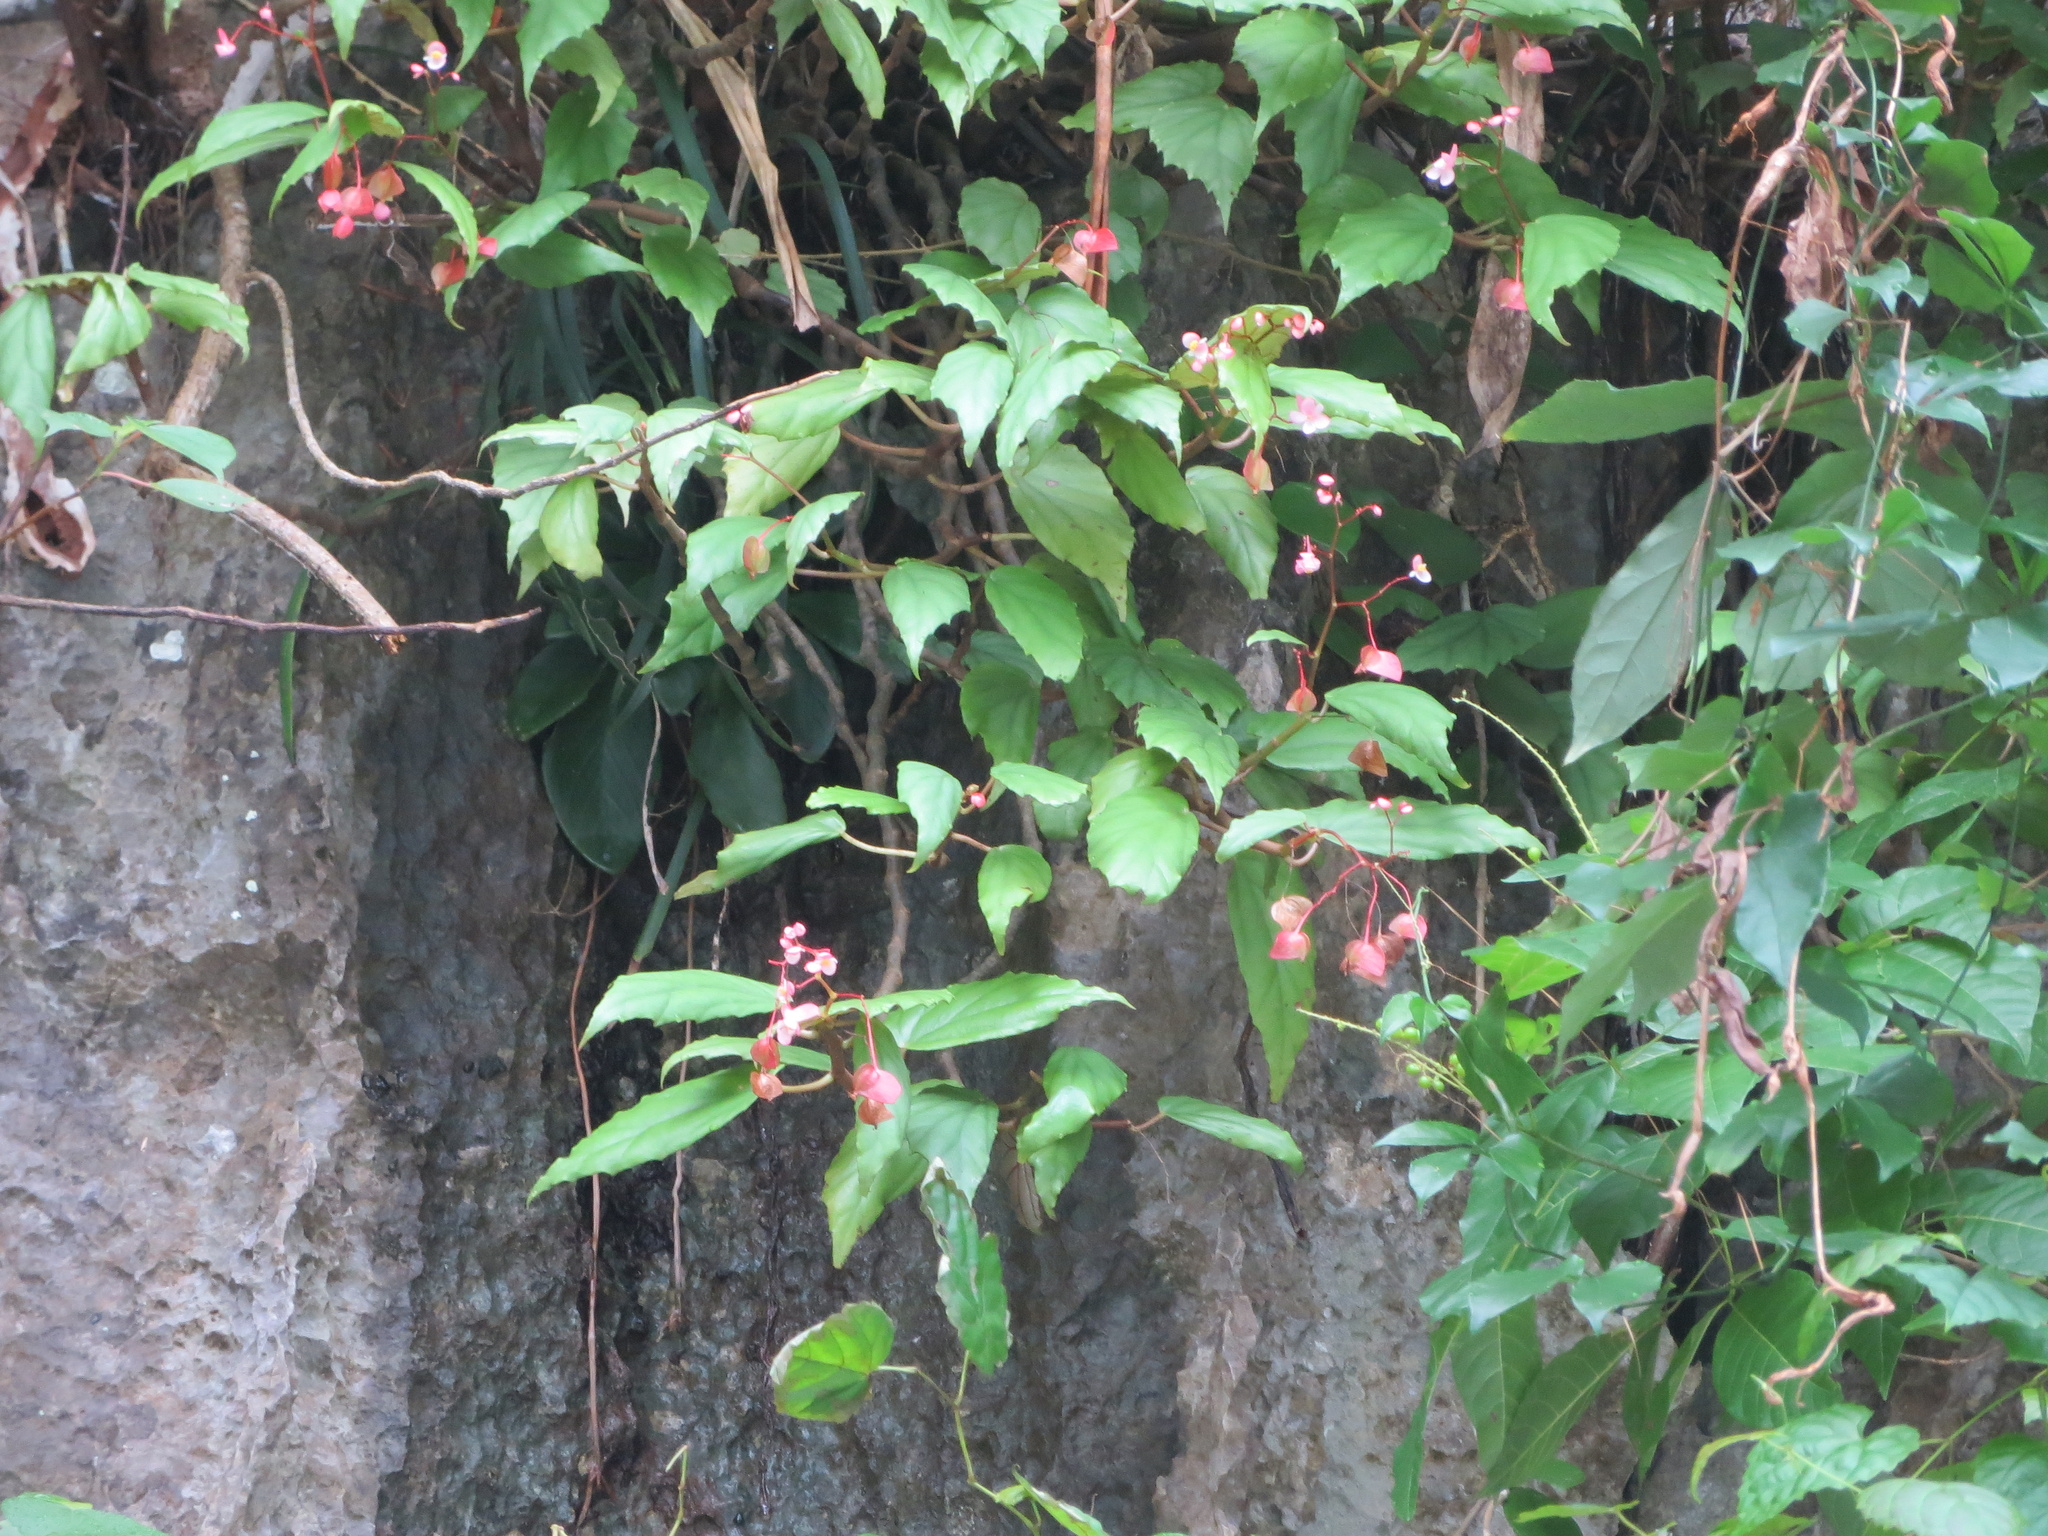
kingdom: Plantae
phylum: Tracheophyta
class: Magnoliopsida
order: Cucurbitales
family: Begoniaceae
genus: Begonia
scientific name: Begonia boisiana
